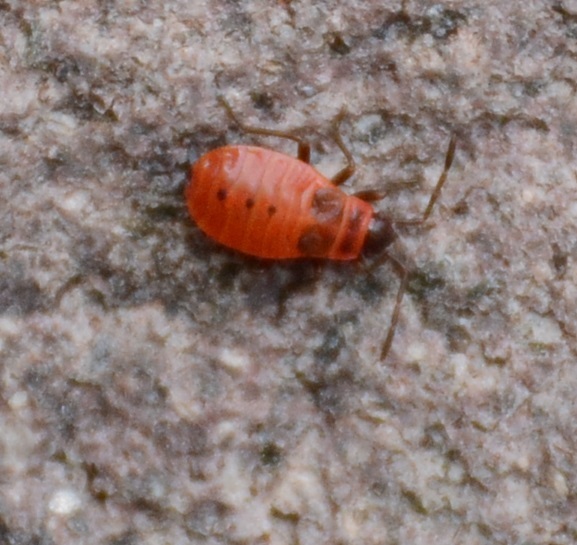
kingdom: Animalia
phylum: Arthropoda
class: Insecta
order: Hemiptera
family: Pyrrhocoridae
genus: Pyrrhocoris
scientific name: Pyrrhocoris apterus
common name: Firebug
